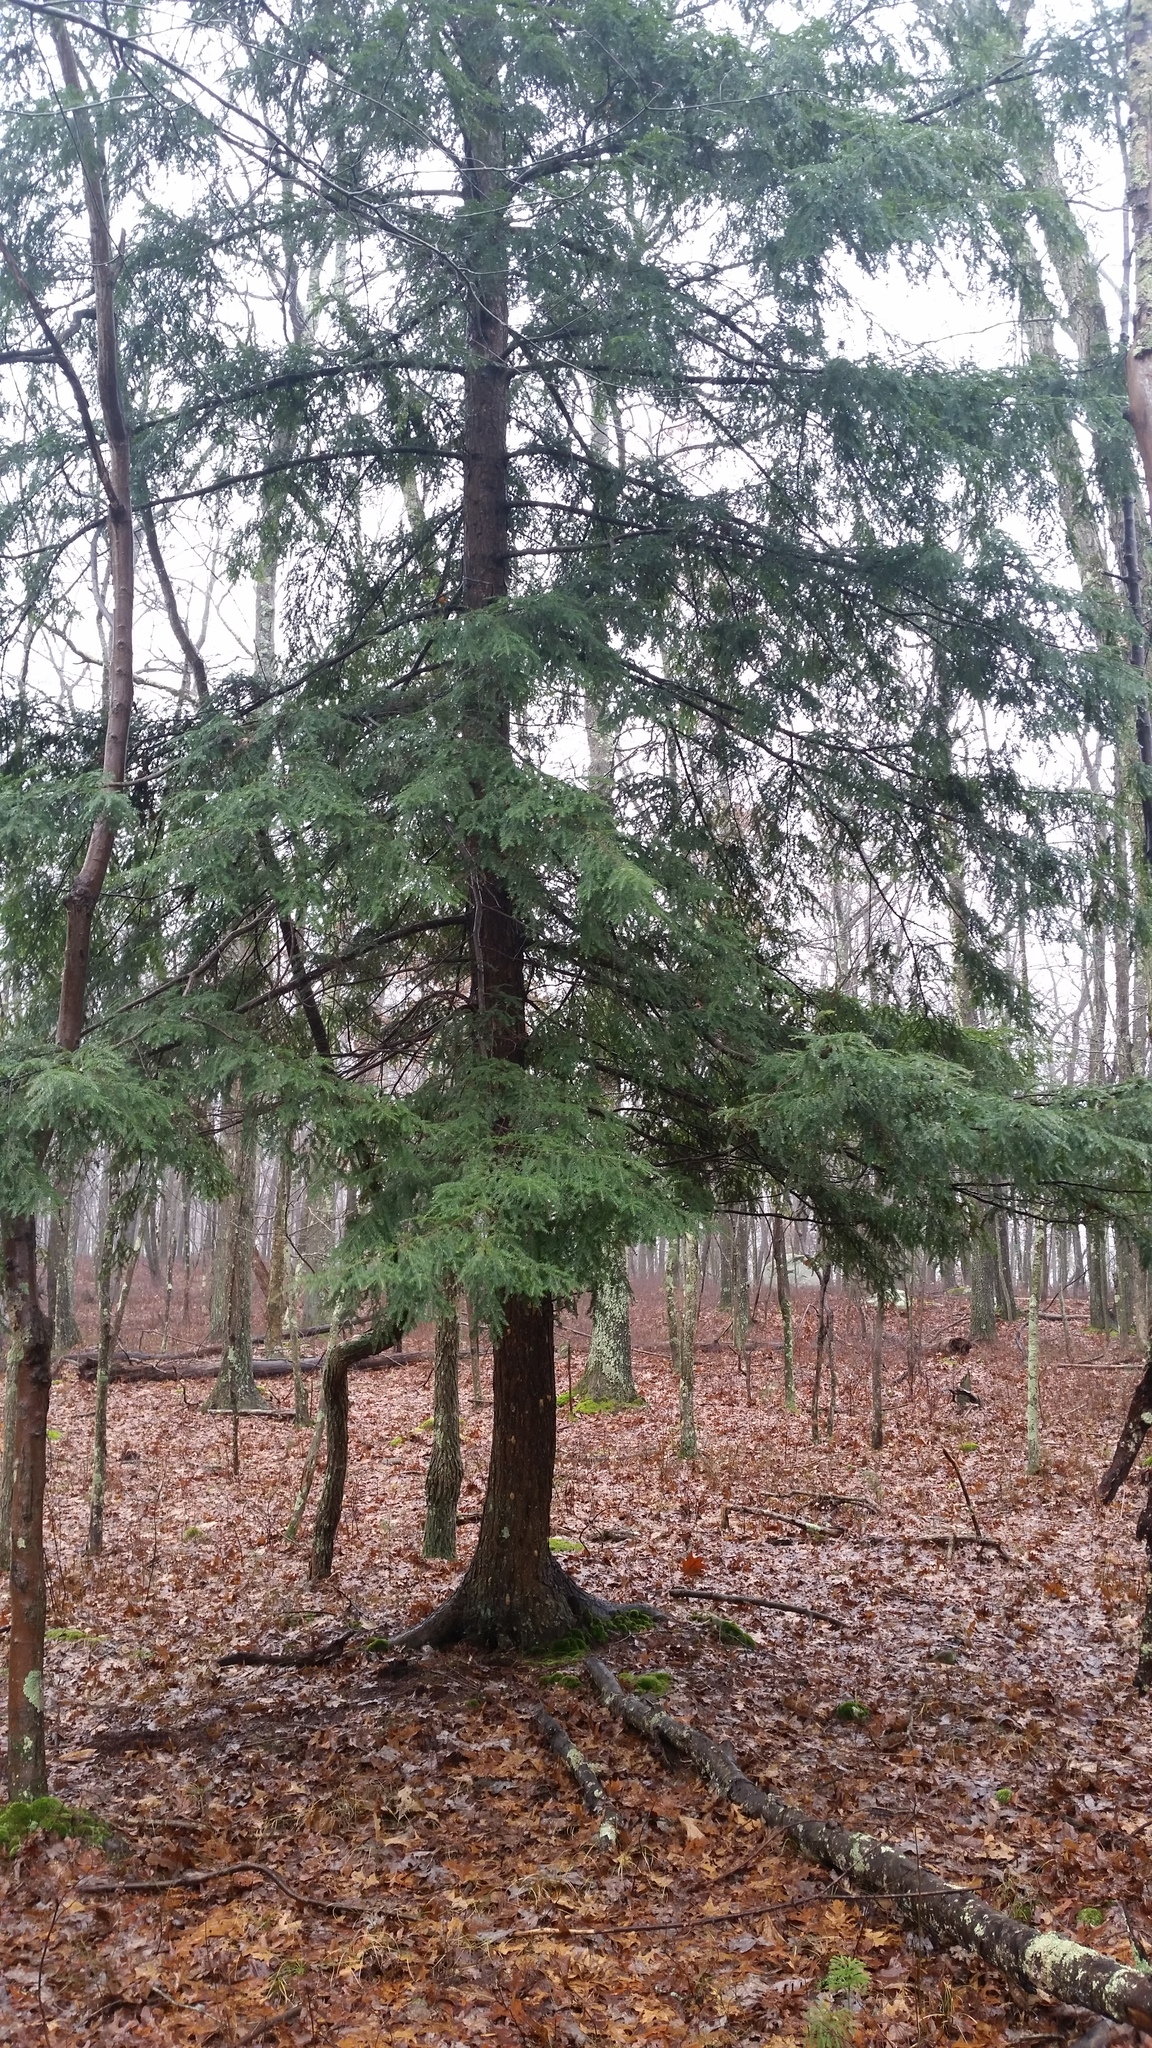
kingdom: Plantae
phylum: Tracheophyta
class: Pinopsida
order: Pinales
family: Pinaceae
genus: Tsuga
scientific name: Tsuga canadensis
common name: Eastern hemlock
